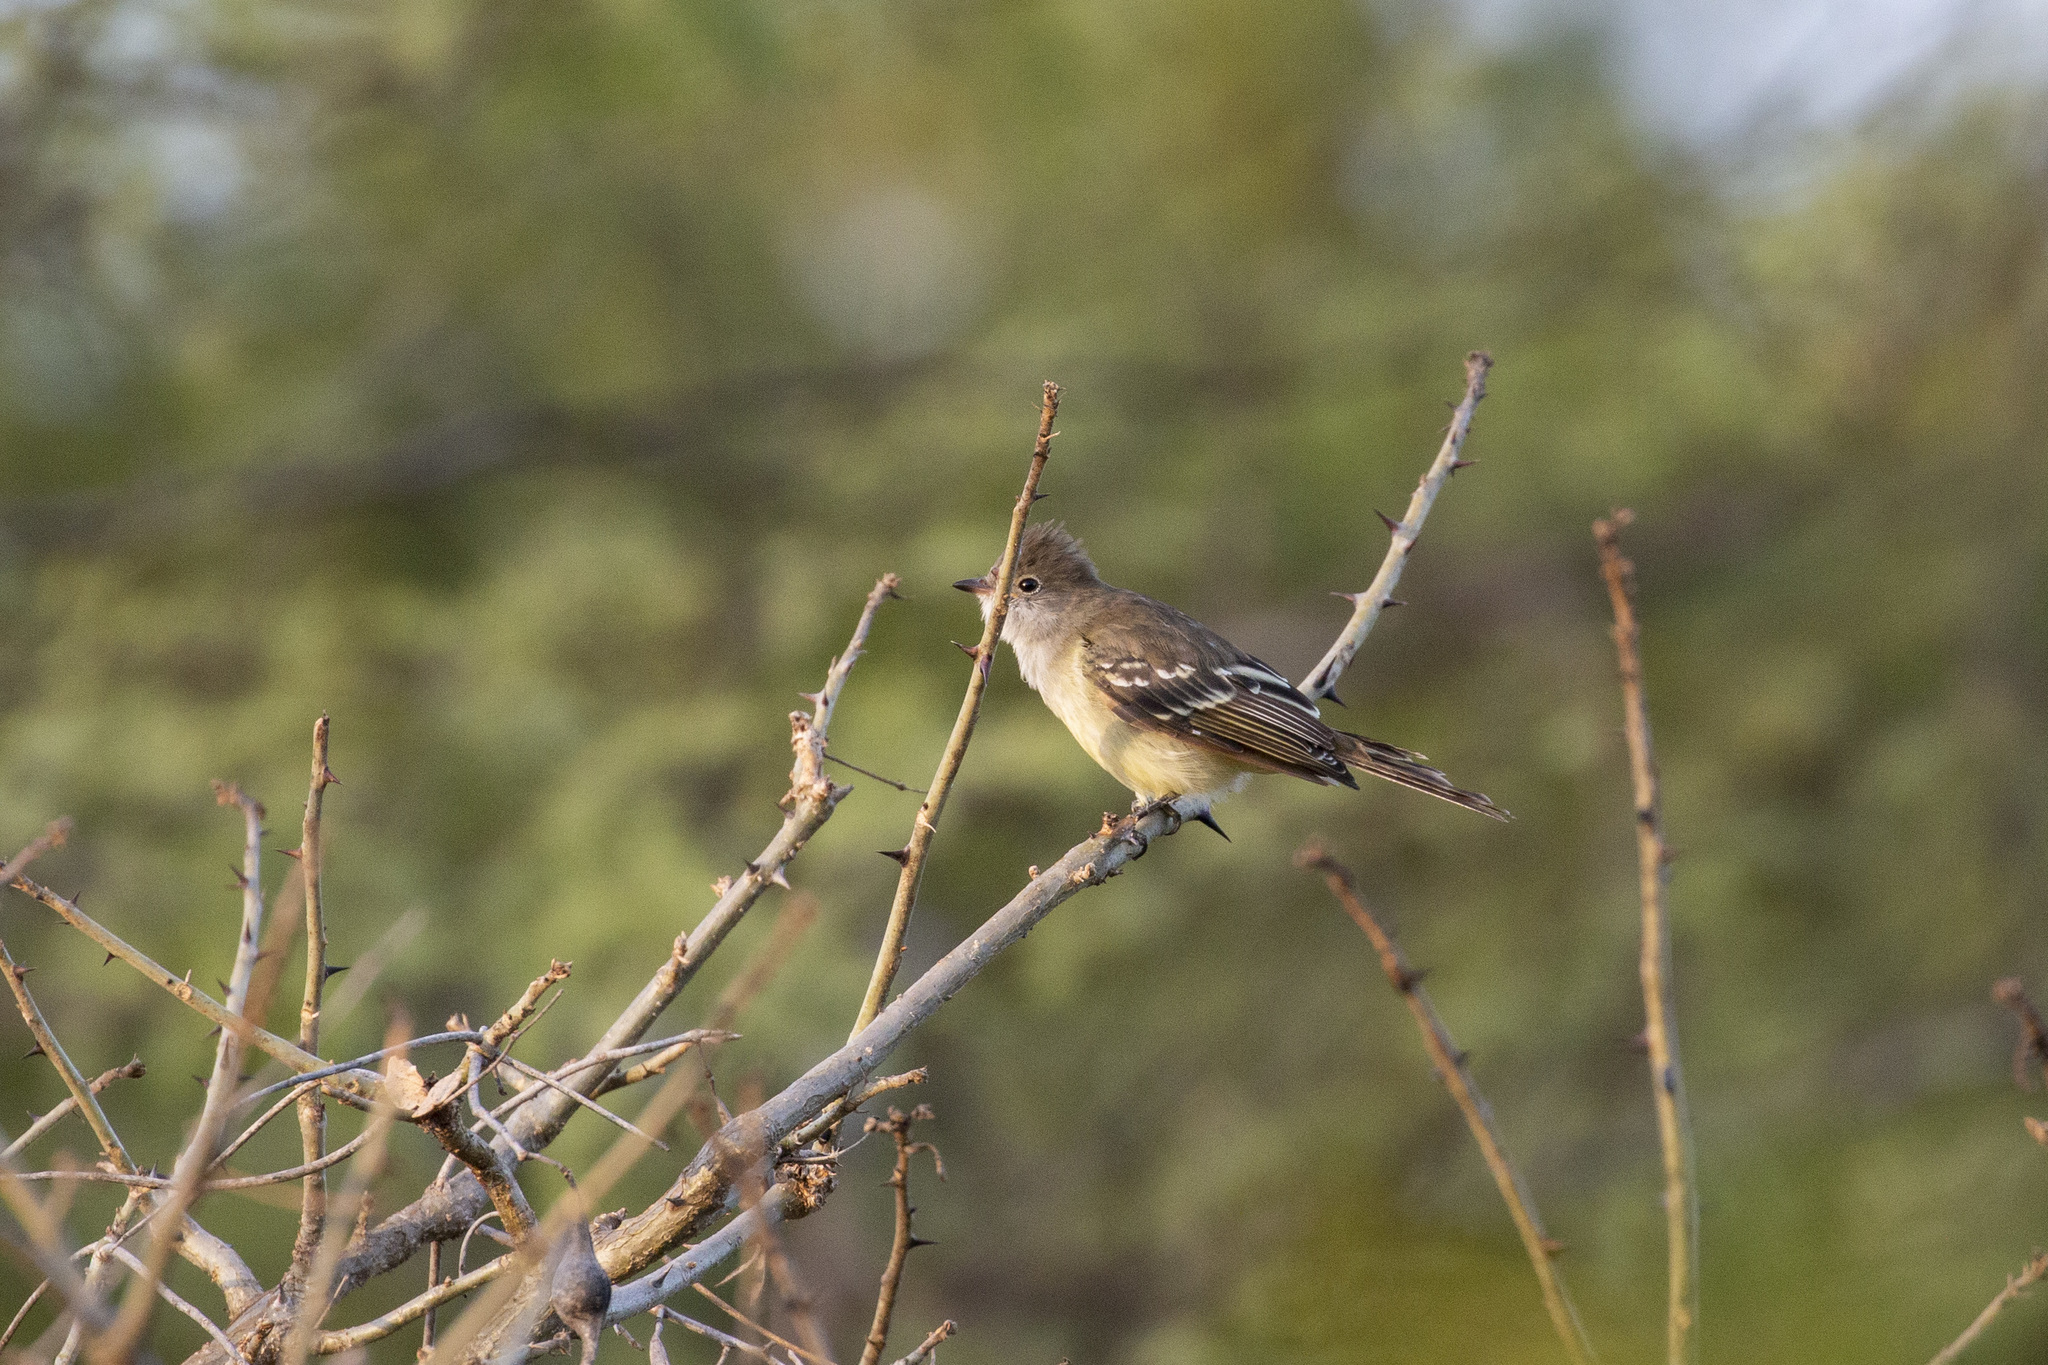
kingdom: Animalia
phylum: Chordata
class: Aves
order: Passeriformes
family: Tyrannidae
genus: Elaenia
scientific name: Elaenia spectabilis
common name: Large elaenia
